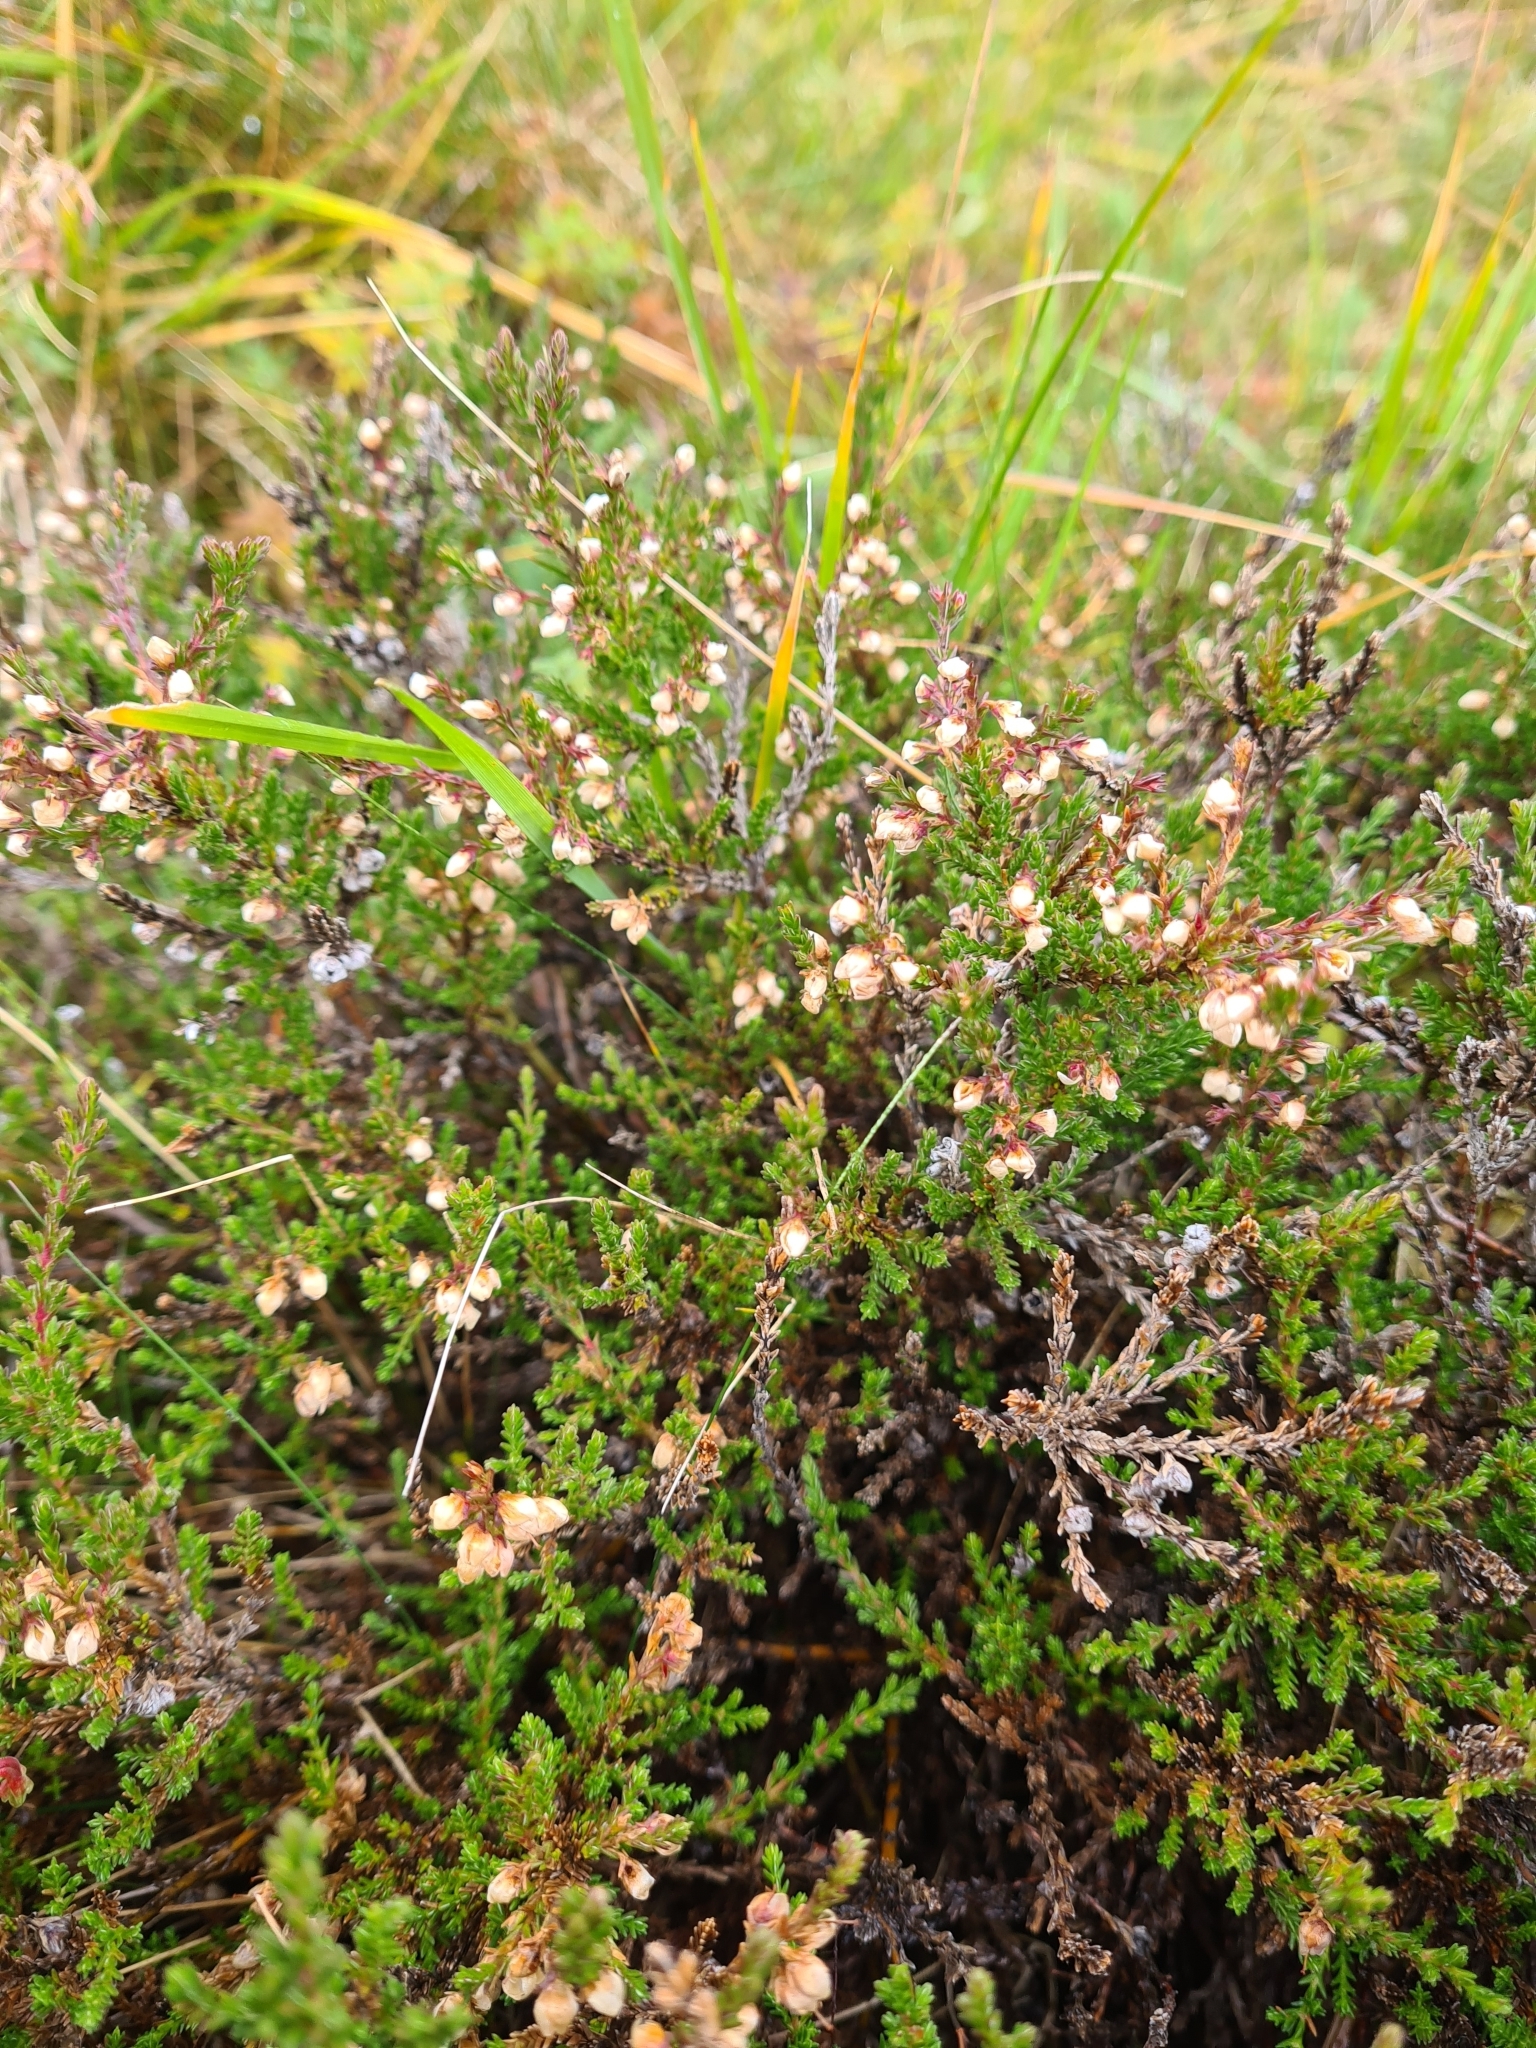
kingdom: Plantae
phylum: Tracheophyta
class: Magnoliopsida
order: Ericales
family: Ericaceae
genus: Calluna
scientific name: Calluna vulgaris
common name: Heather
